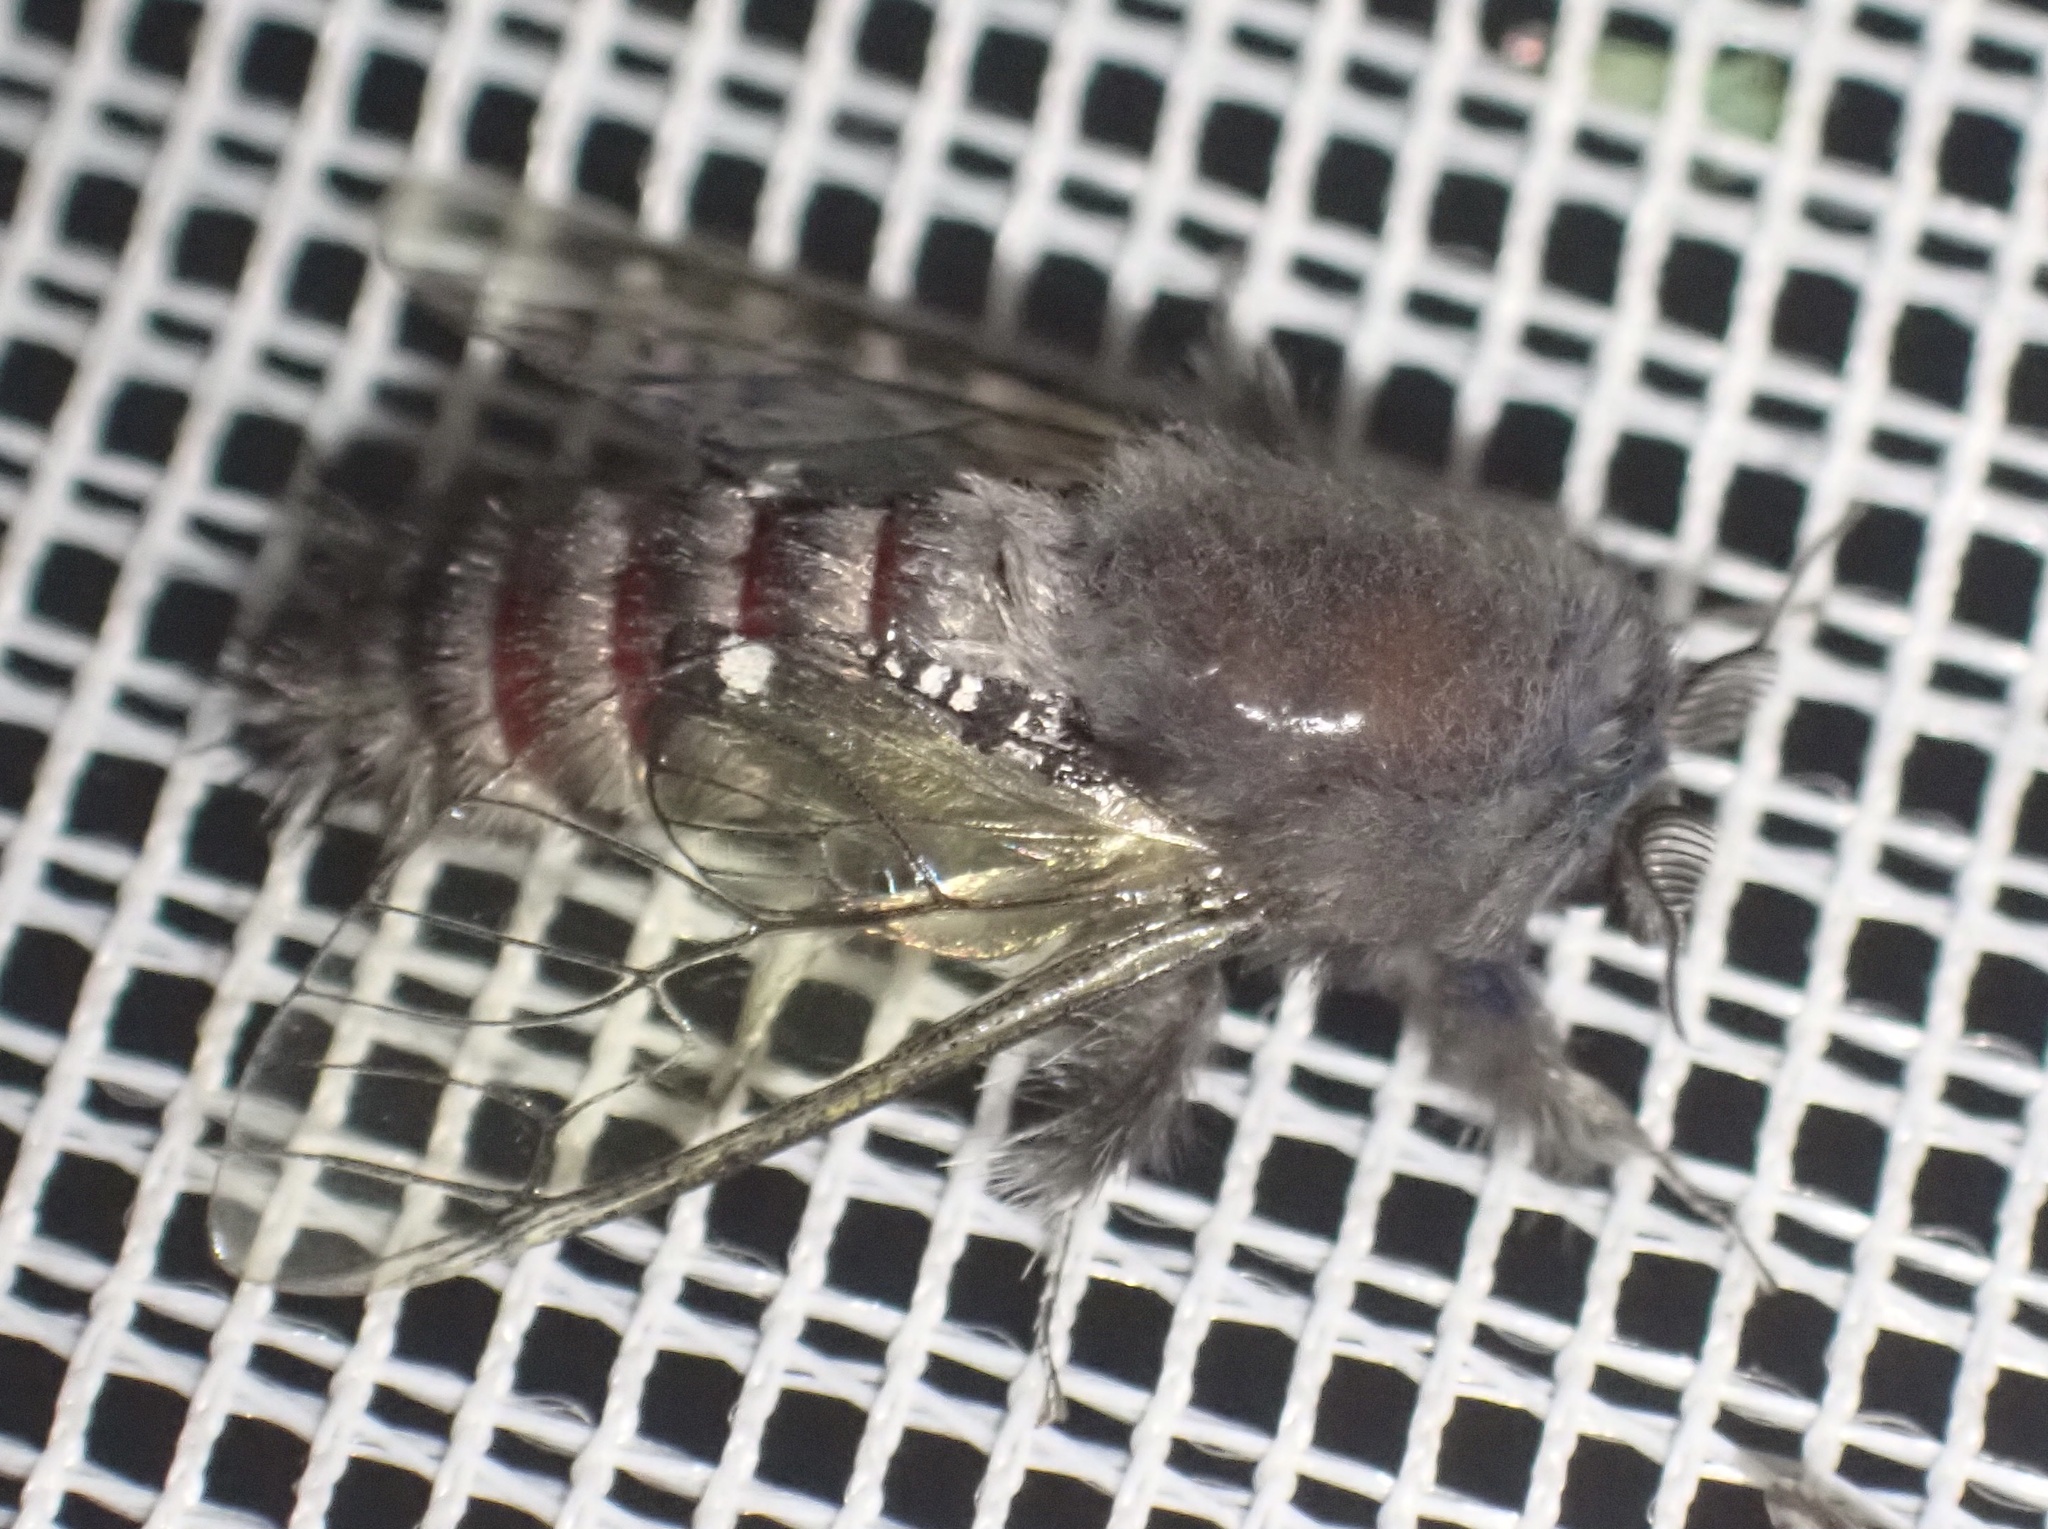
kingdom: Animalia
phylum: Arthropoda
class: Insecta
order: Lepidoptera
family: Cossidae
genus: Eulophonotus
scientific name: Eulophonotus hyalinipennis
